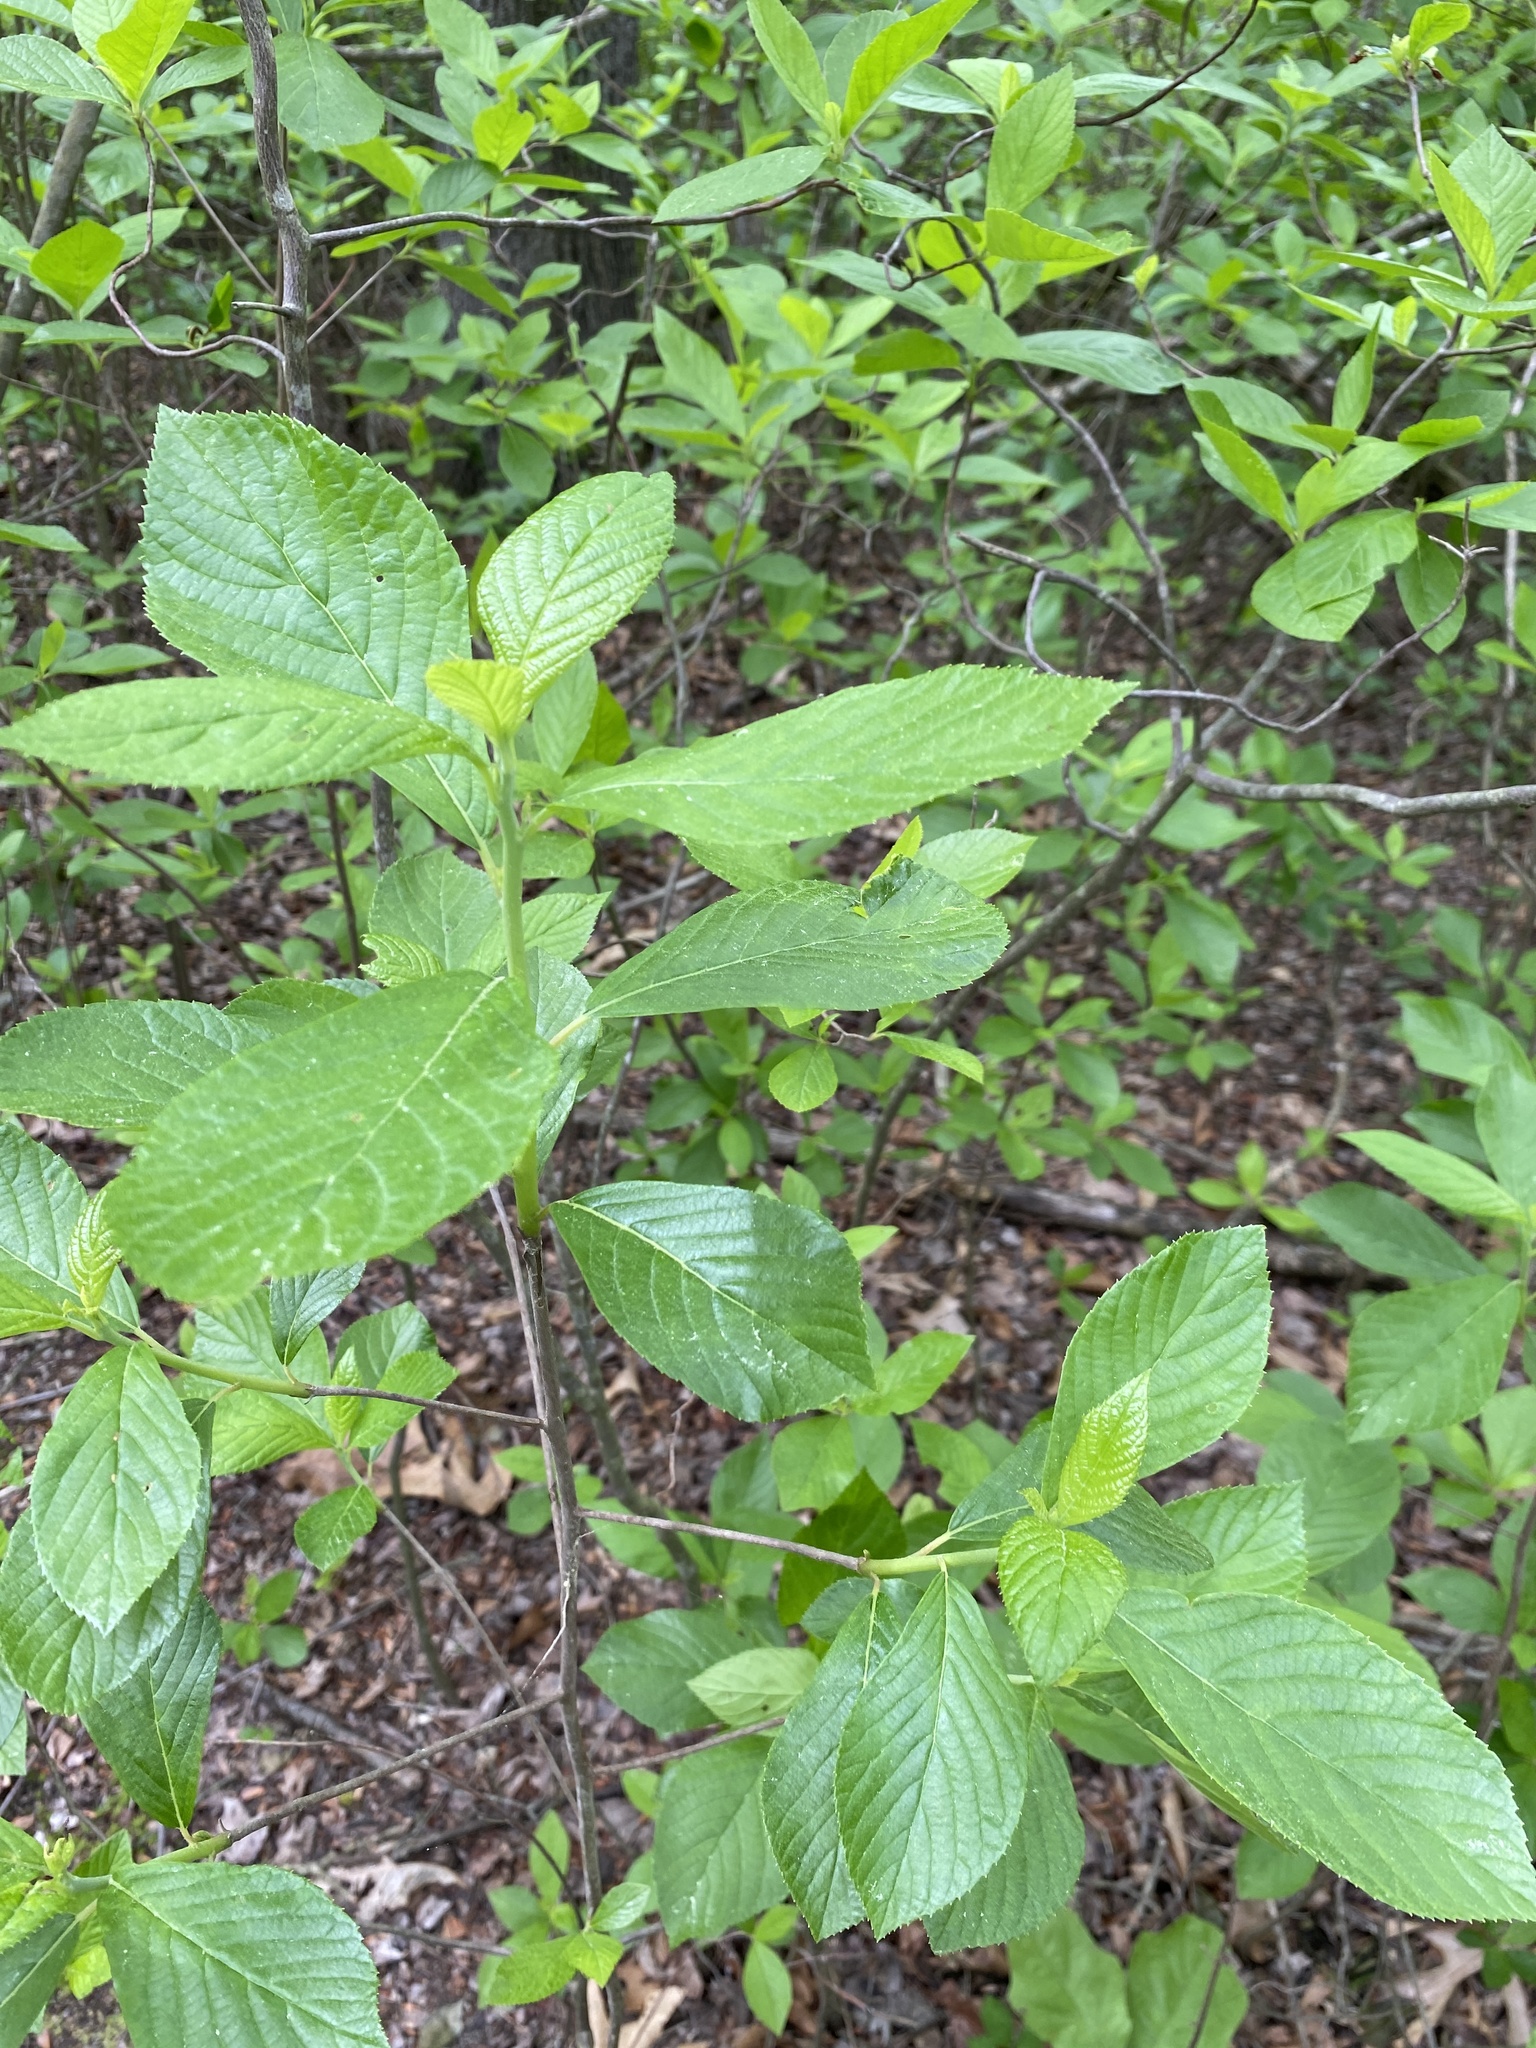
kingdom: Plantae
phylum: Tracheophyta
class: Magnoliopsida
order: Ericales
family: Clethraceae
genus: Clethra
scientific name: Clethra alnifolia
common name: Sweet pepperbush
